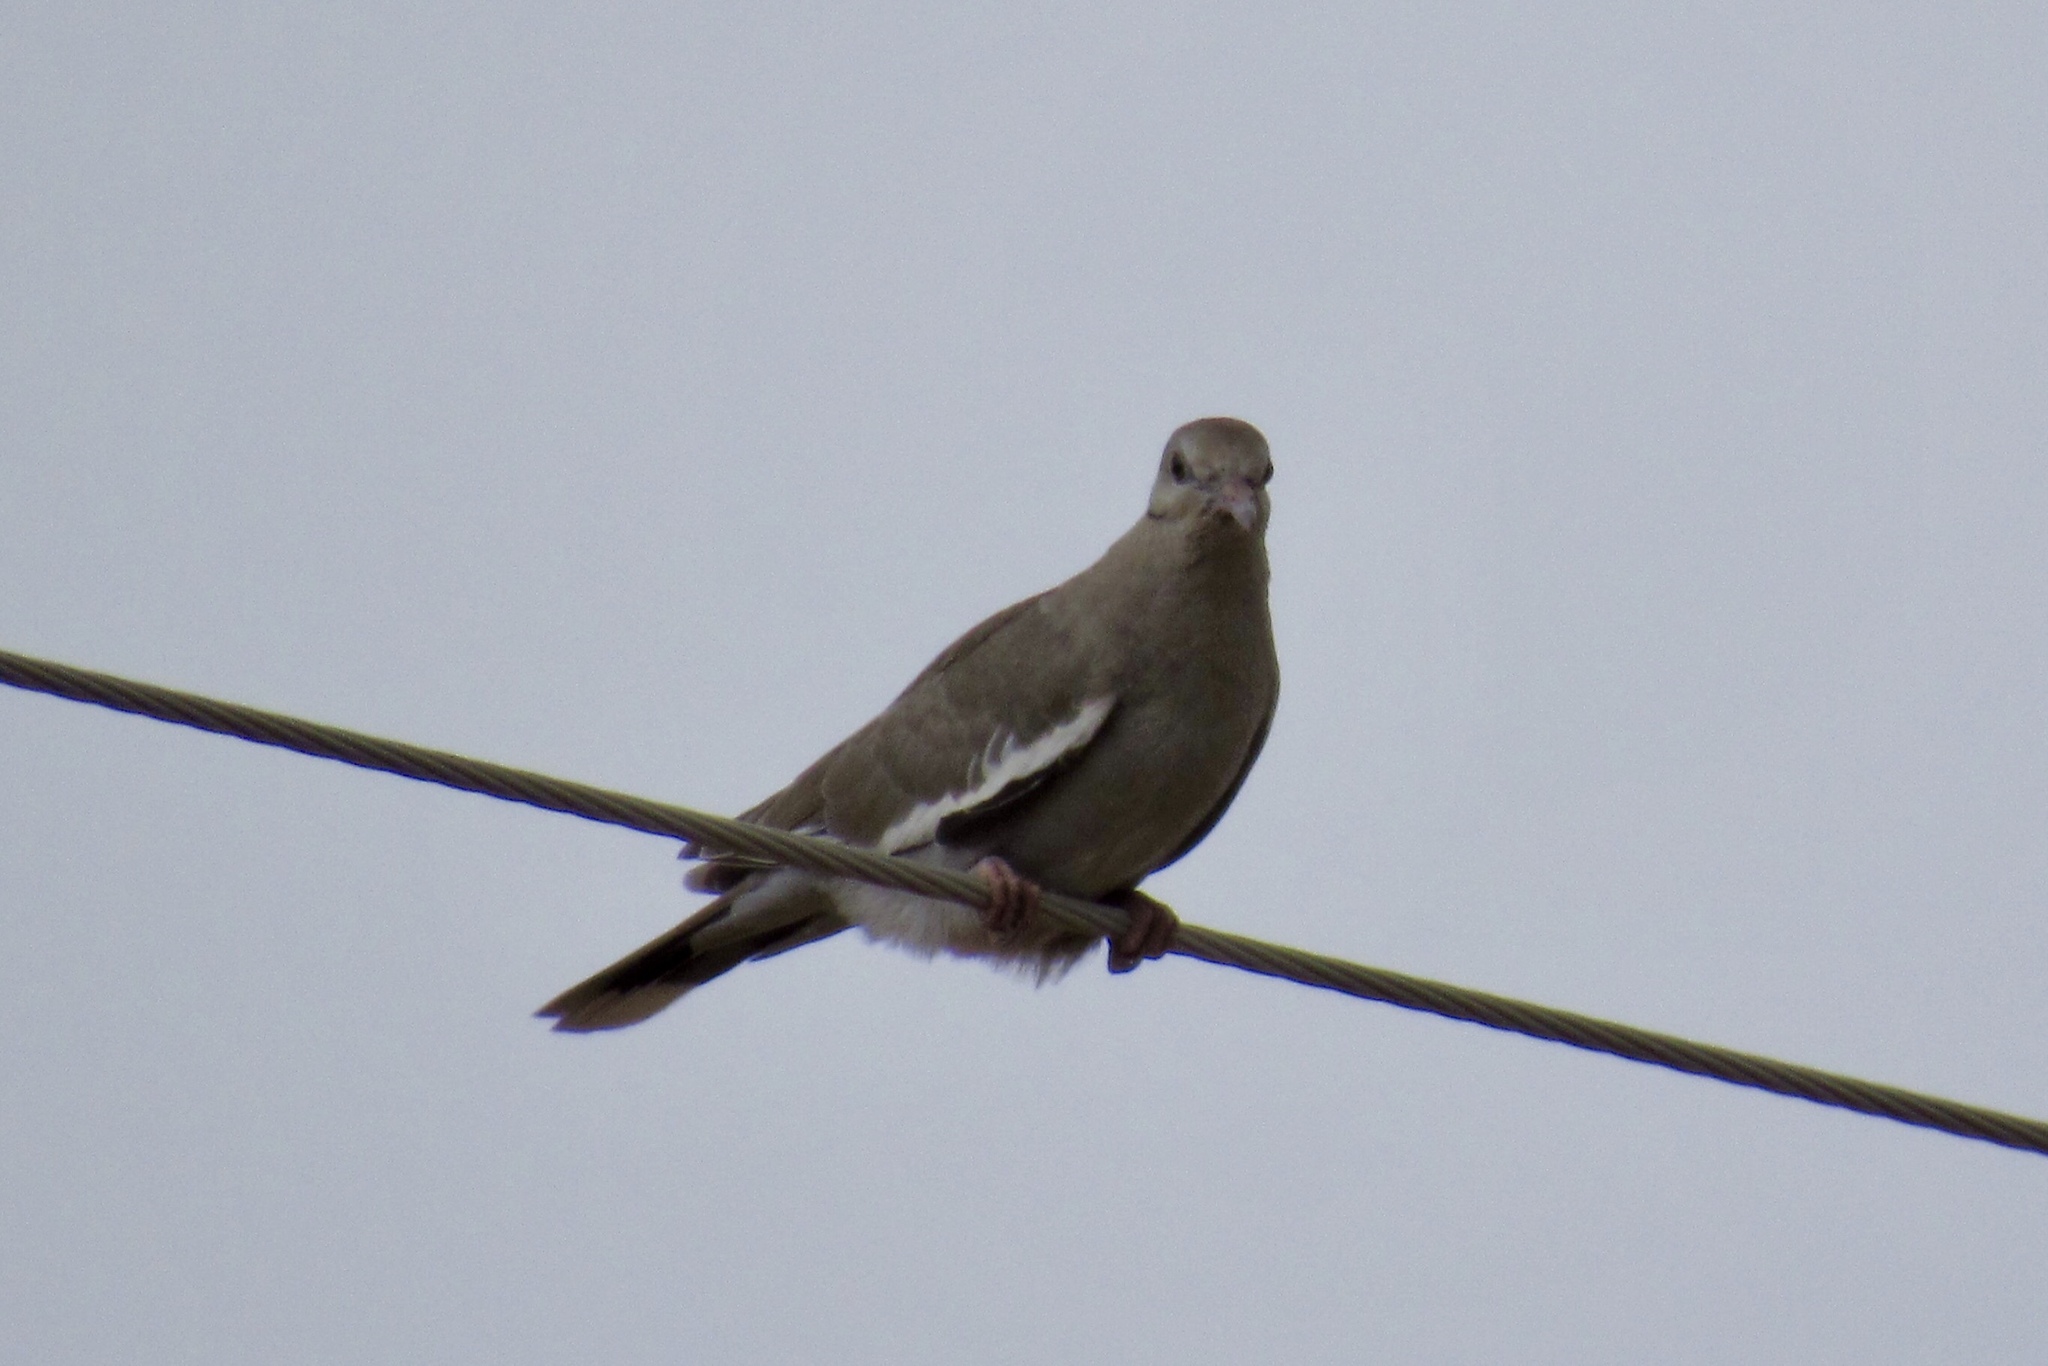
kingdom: Animalia
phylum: Chordata
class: Aves
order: Columbiformes
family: Columbidae
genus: Zenaida
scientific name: Zenaida asiatica
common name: White-winged dove
